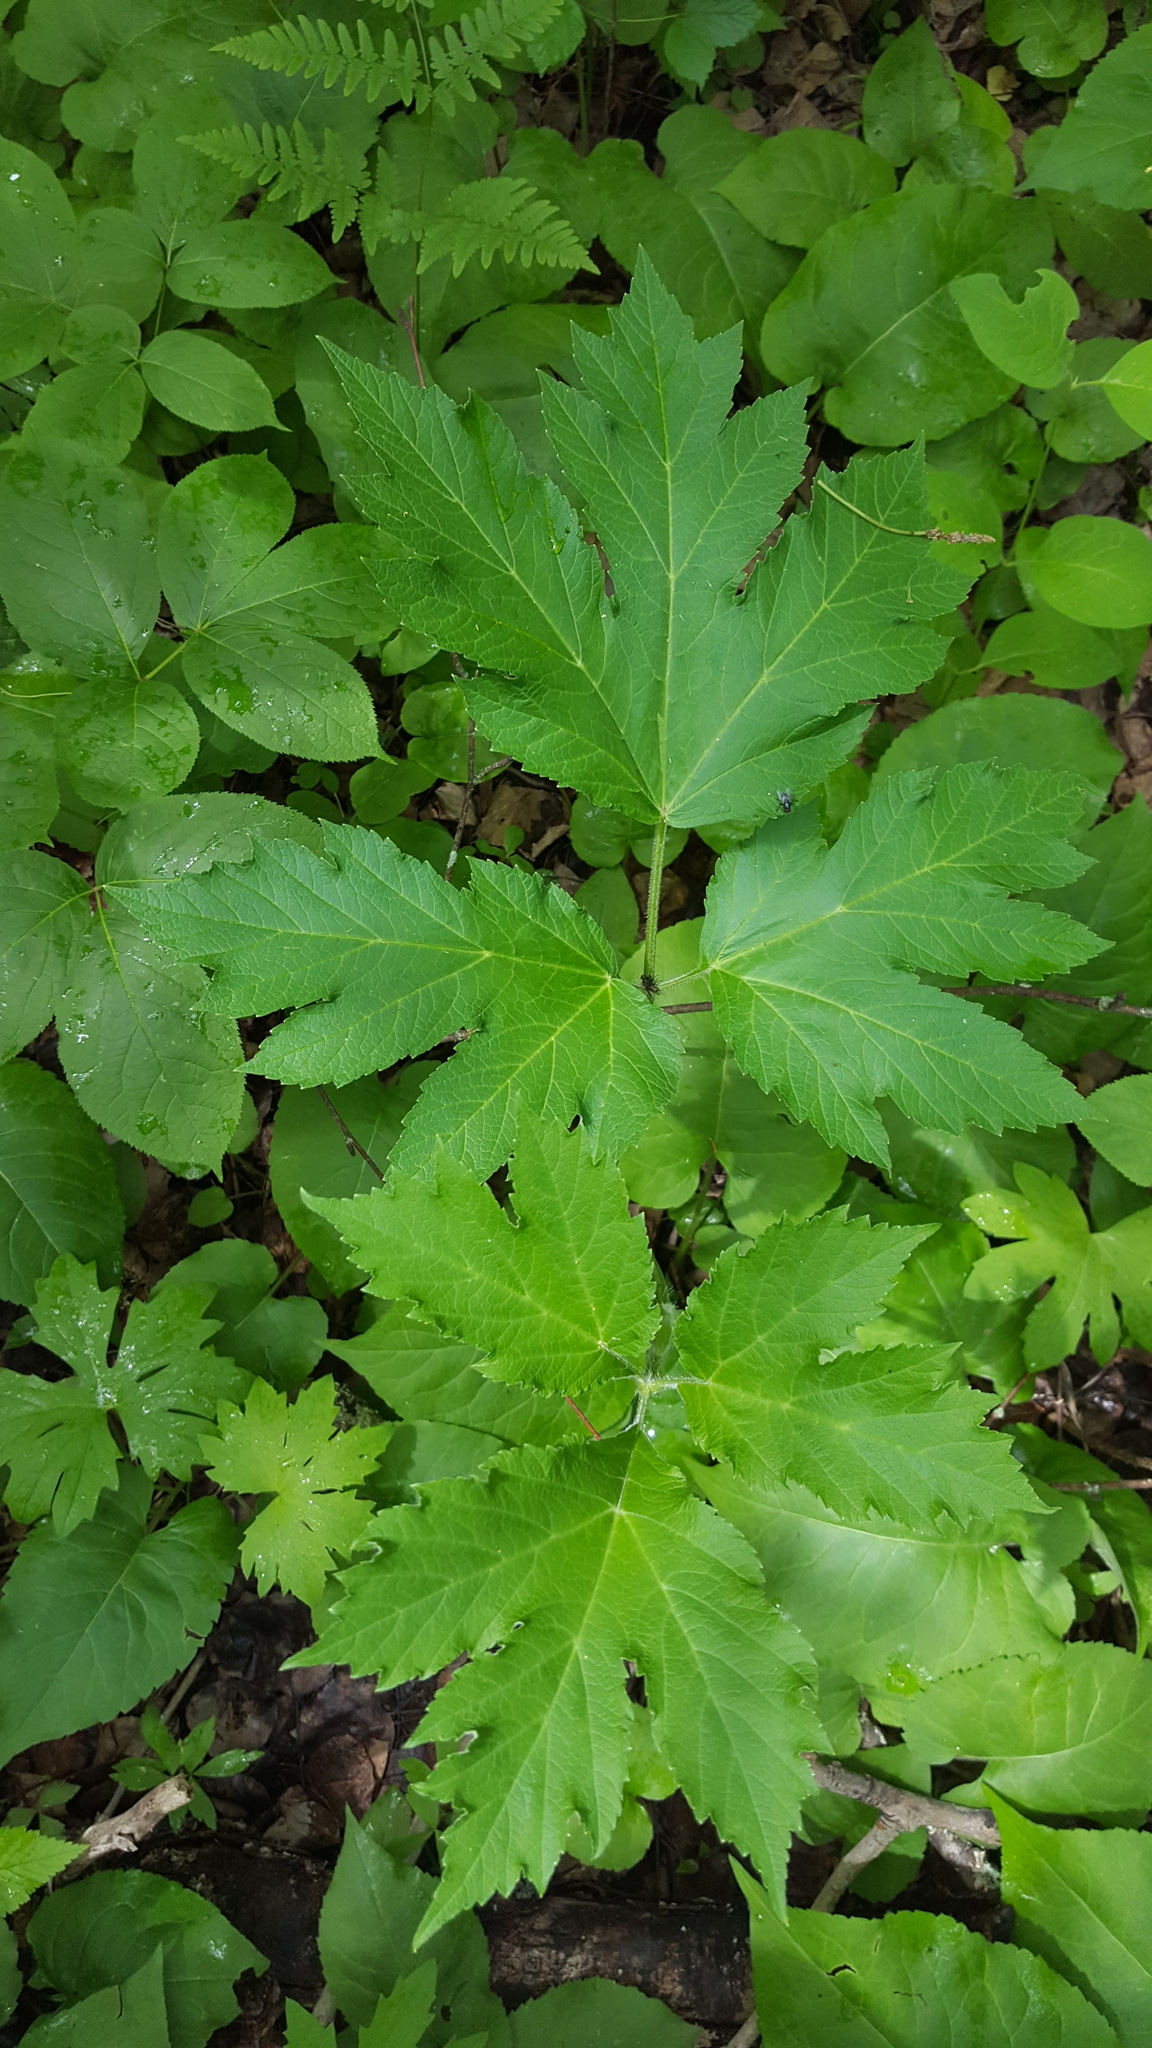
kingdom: Plantae
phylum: Tracheophyta
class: Magnoliopsida
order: Apiales
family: Apiaceae
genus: Heracleum
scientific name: Heracleum maximum
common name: American cow parsnip
